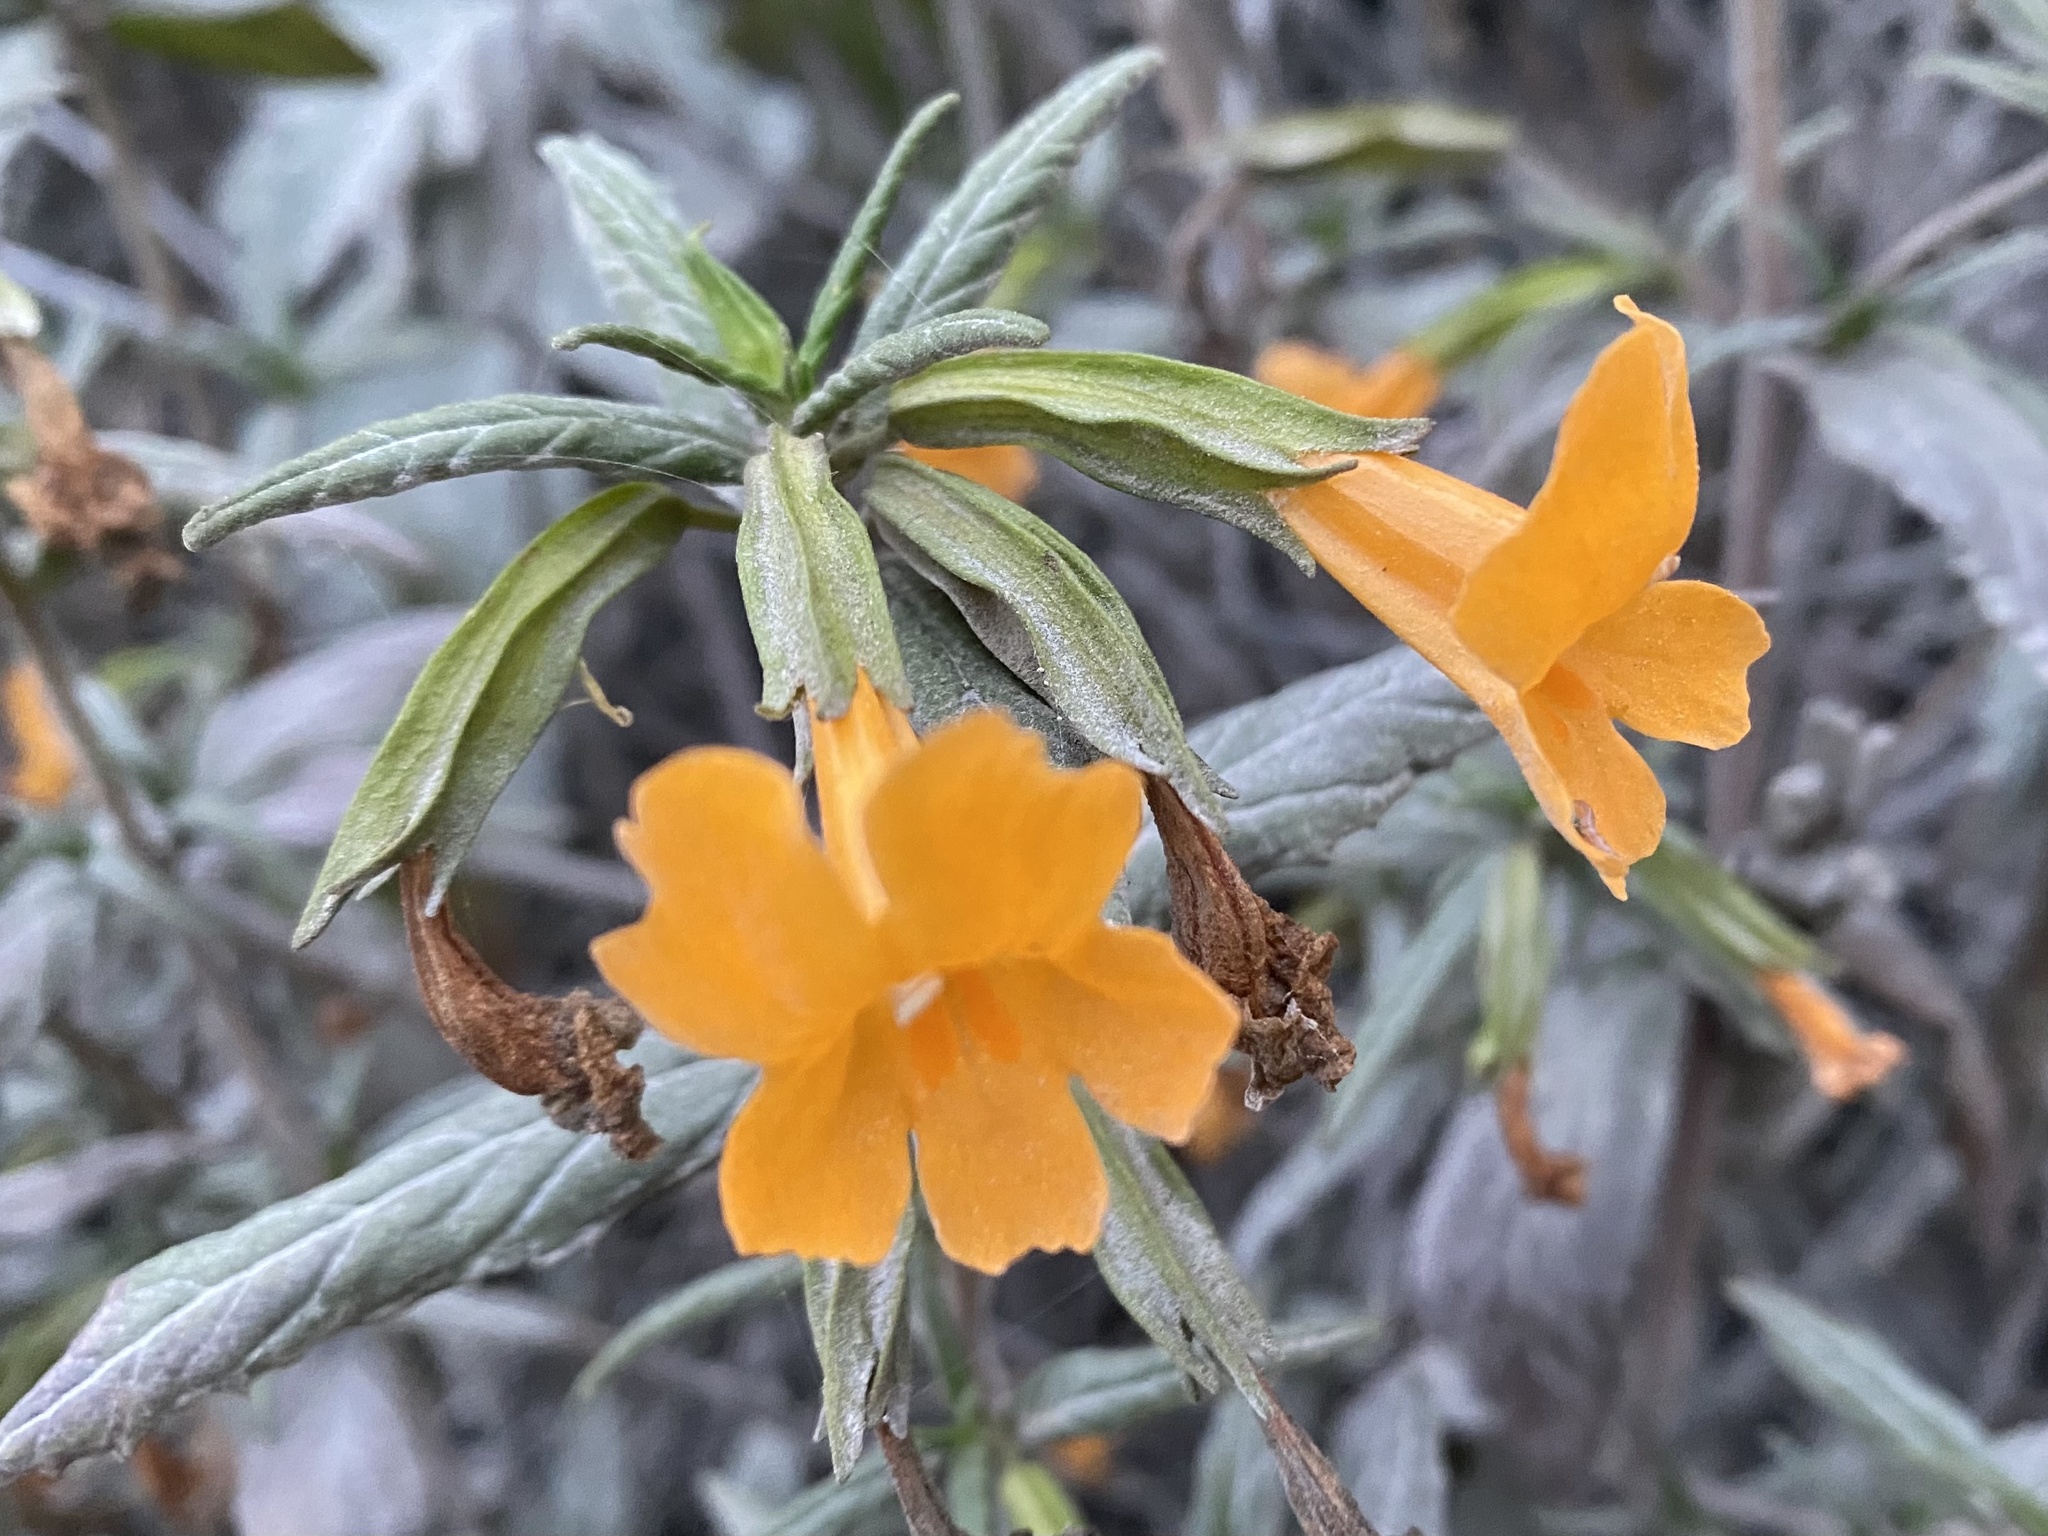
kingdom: Plantae
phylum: Tracheophyta
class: Magnoliopsida
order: Lamiales
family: Phrymaceae
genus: Diplacus
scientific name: Diplacus aurantiacus
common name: Bush monkey-flower
